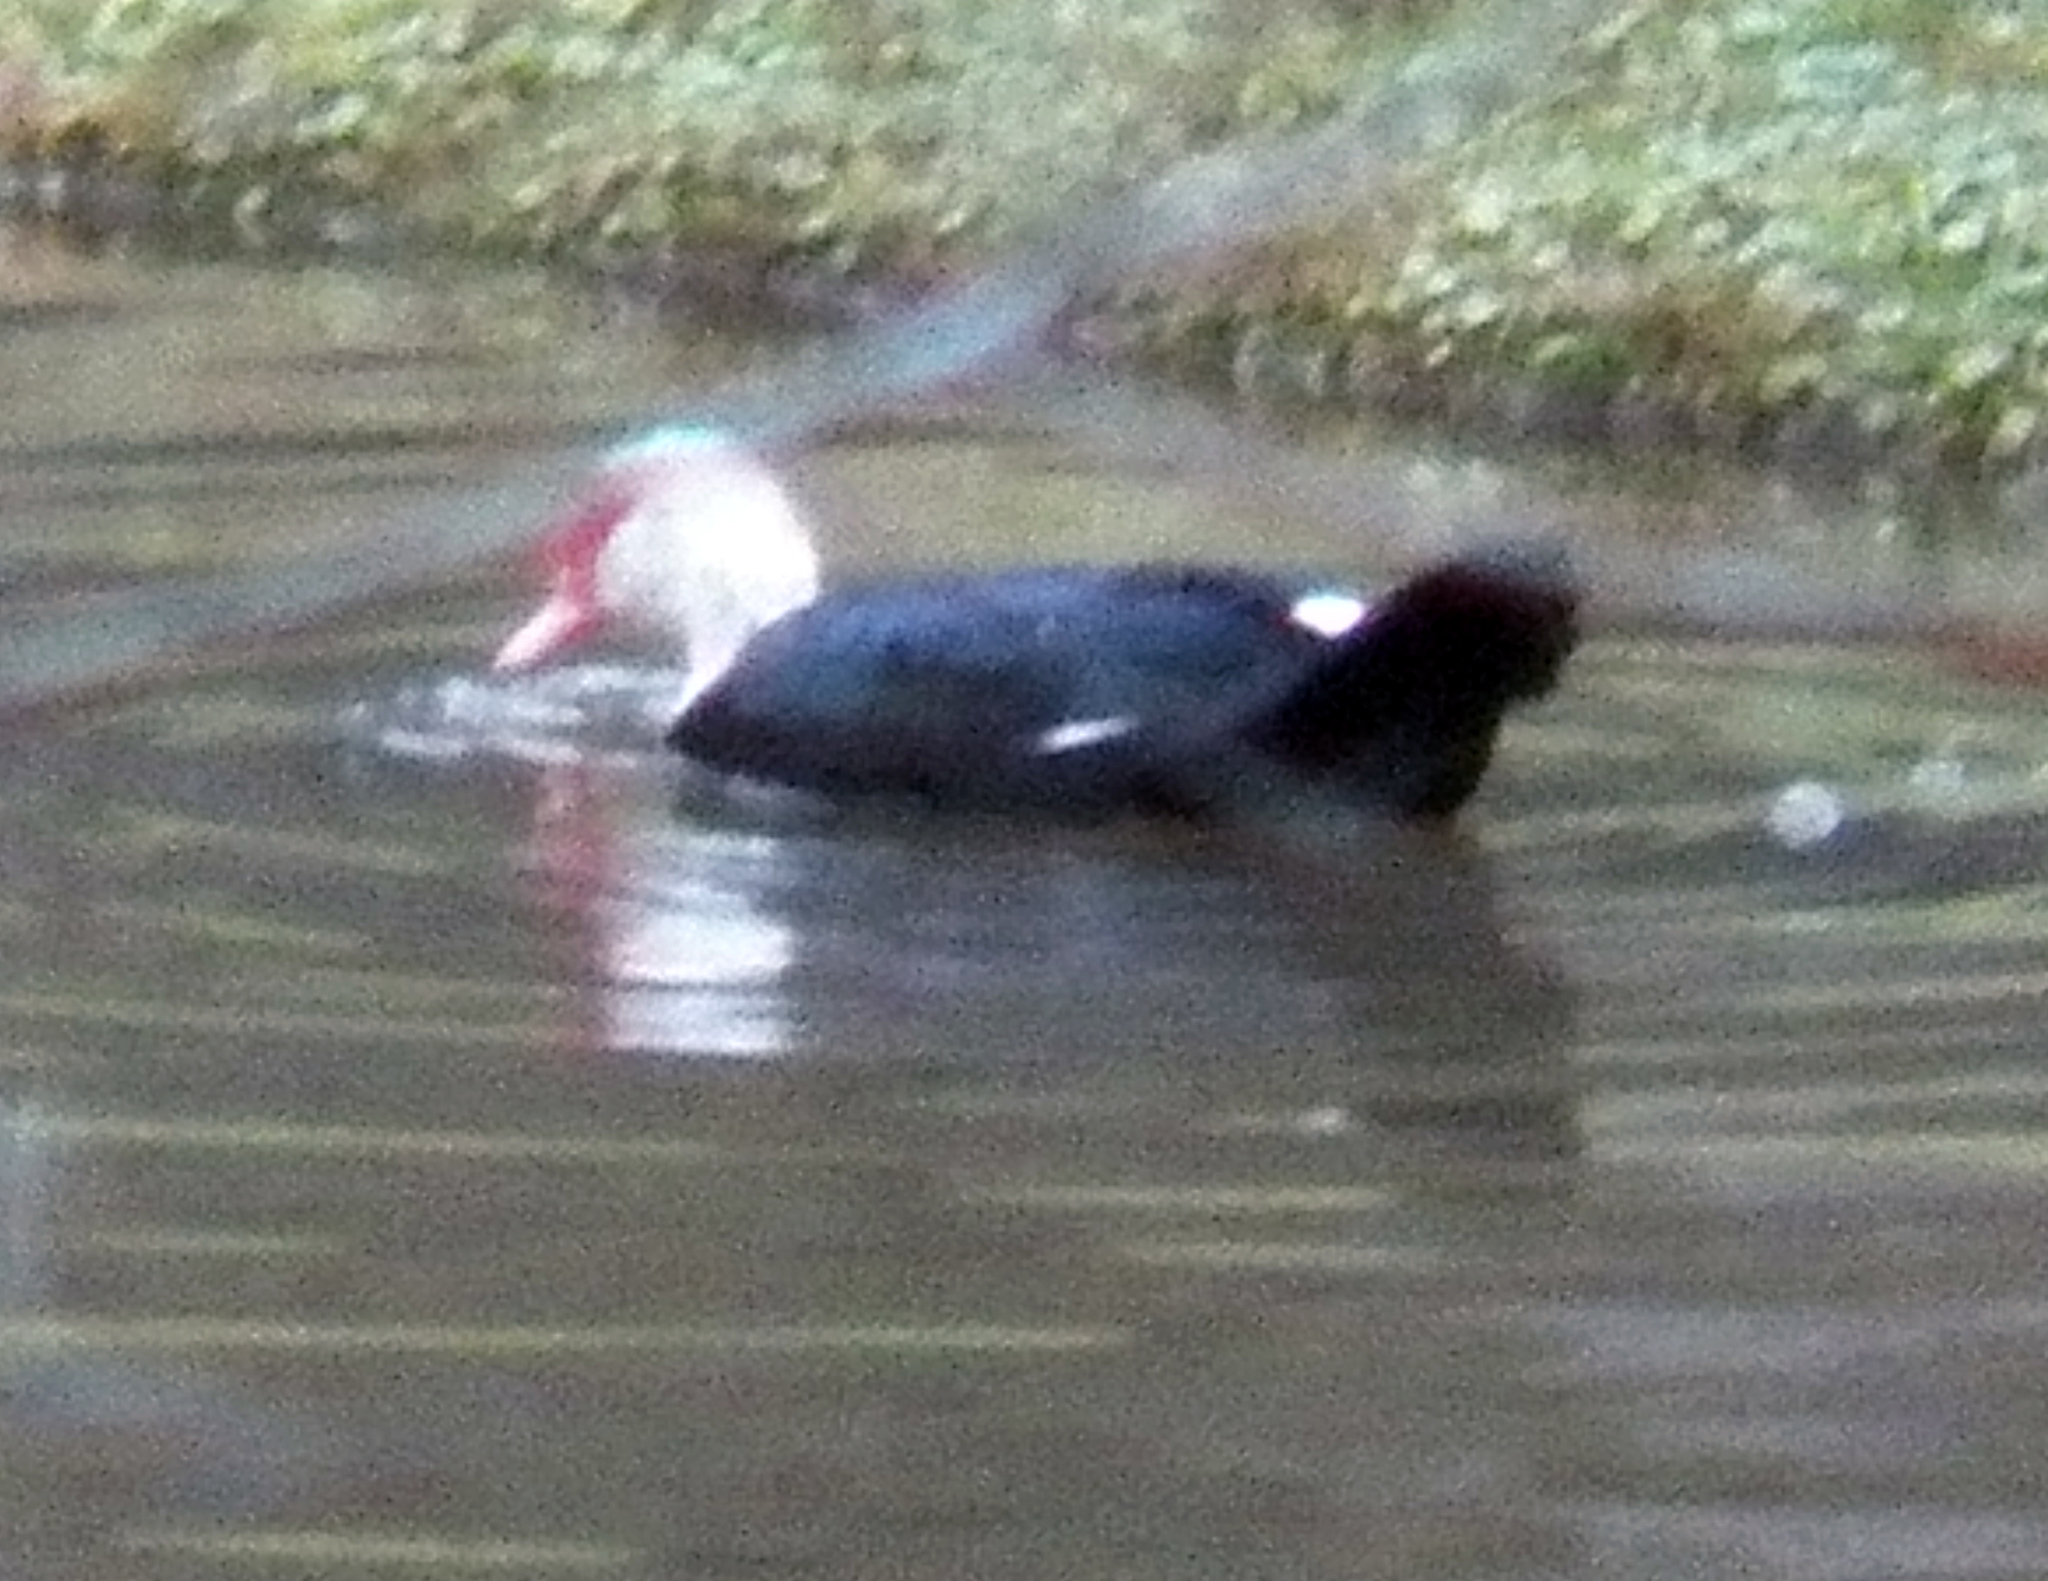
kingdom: Animalia
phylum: Chordata
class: Aves
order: Anseriformes
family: Anatidae
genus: Cairina
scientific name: Cairina moschata
